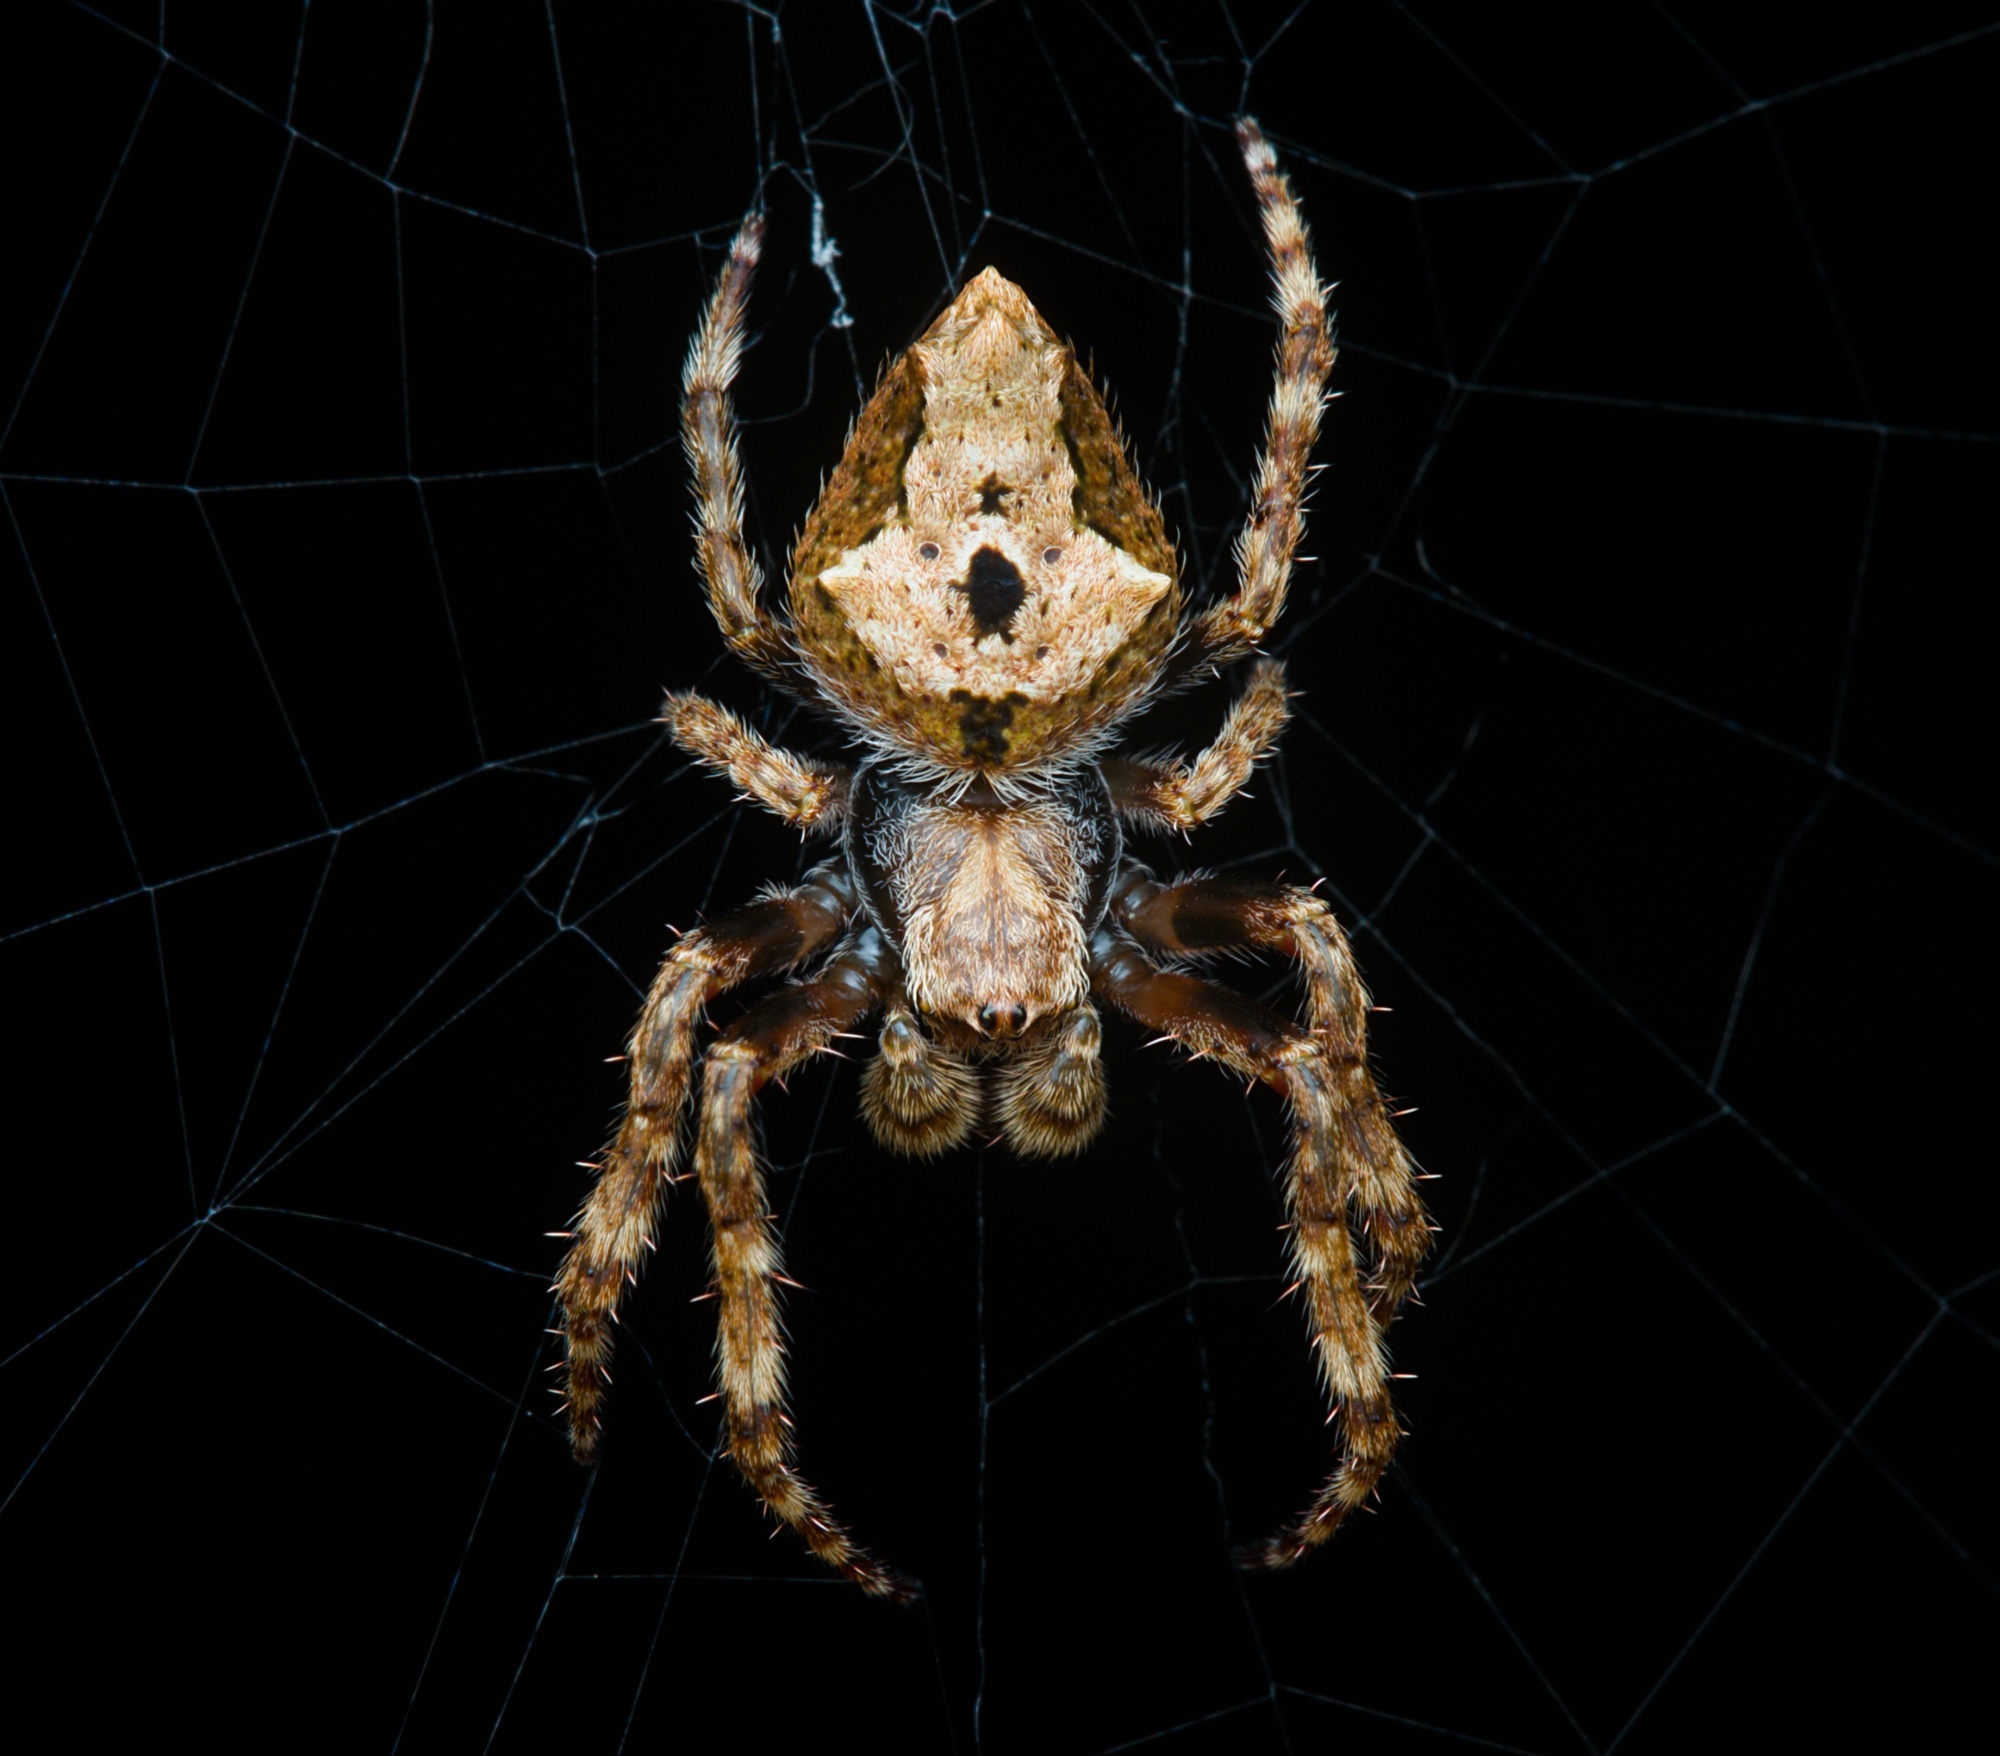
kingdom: Animalia
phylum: Arthropoda
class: Arachnida
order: Araneae
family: Araneidae
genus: Eriophora
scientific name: Eriophora pustulosa
